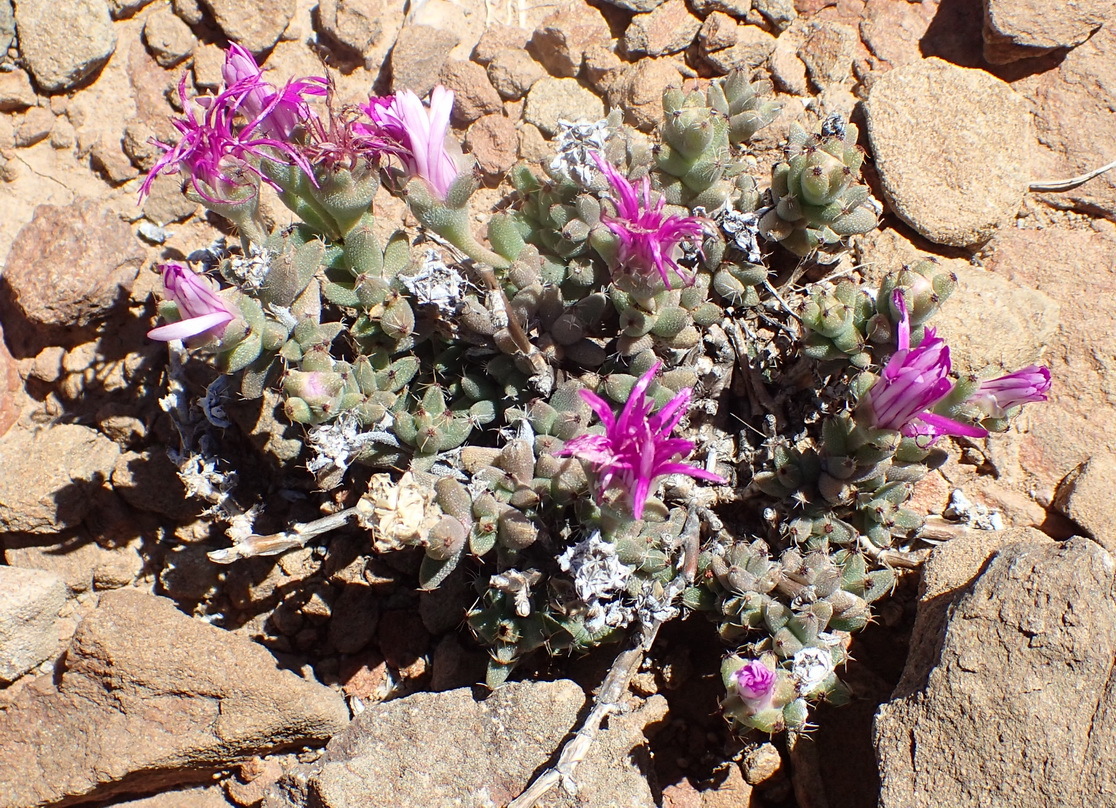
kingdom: Plantae
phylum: Tracheophyta
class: Magnoliopsida
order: Caryophyllales
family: Aizoaceae
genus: Trichodiadema
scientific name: Trichodiadema setuliferum
